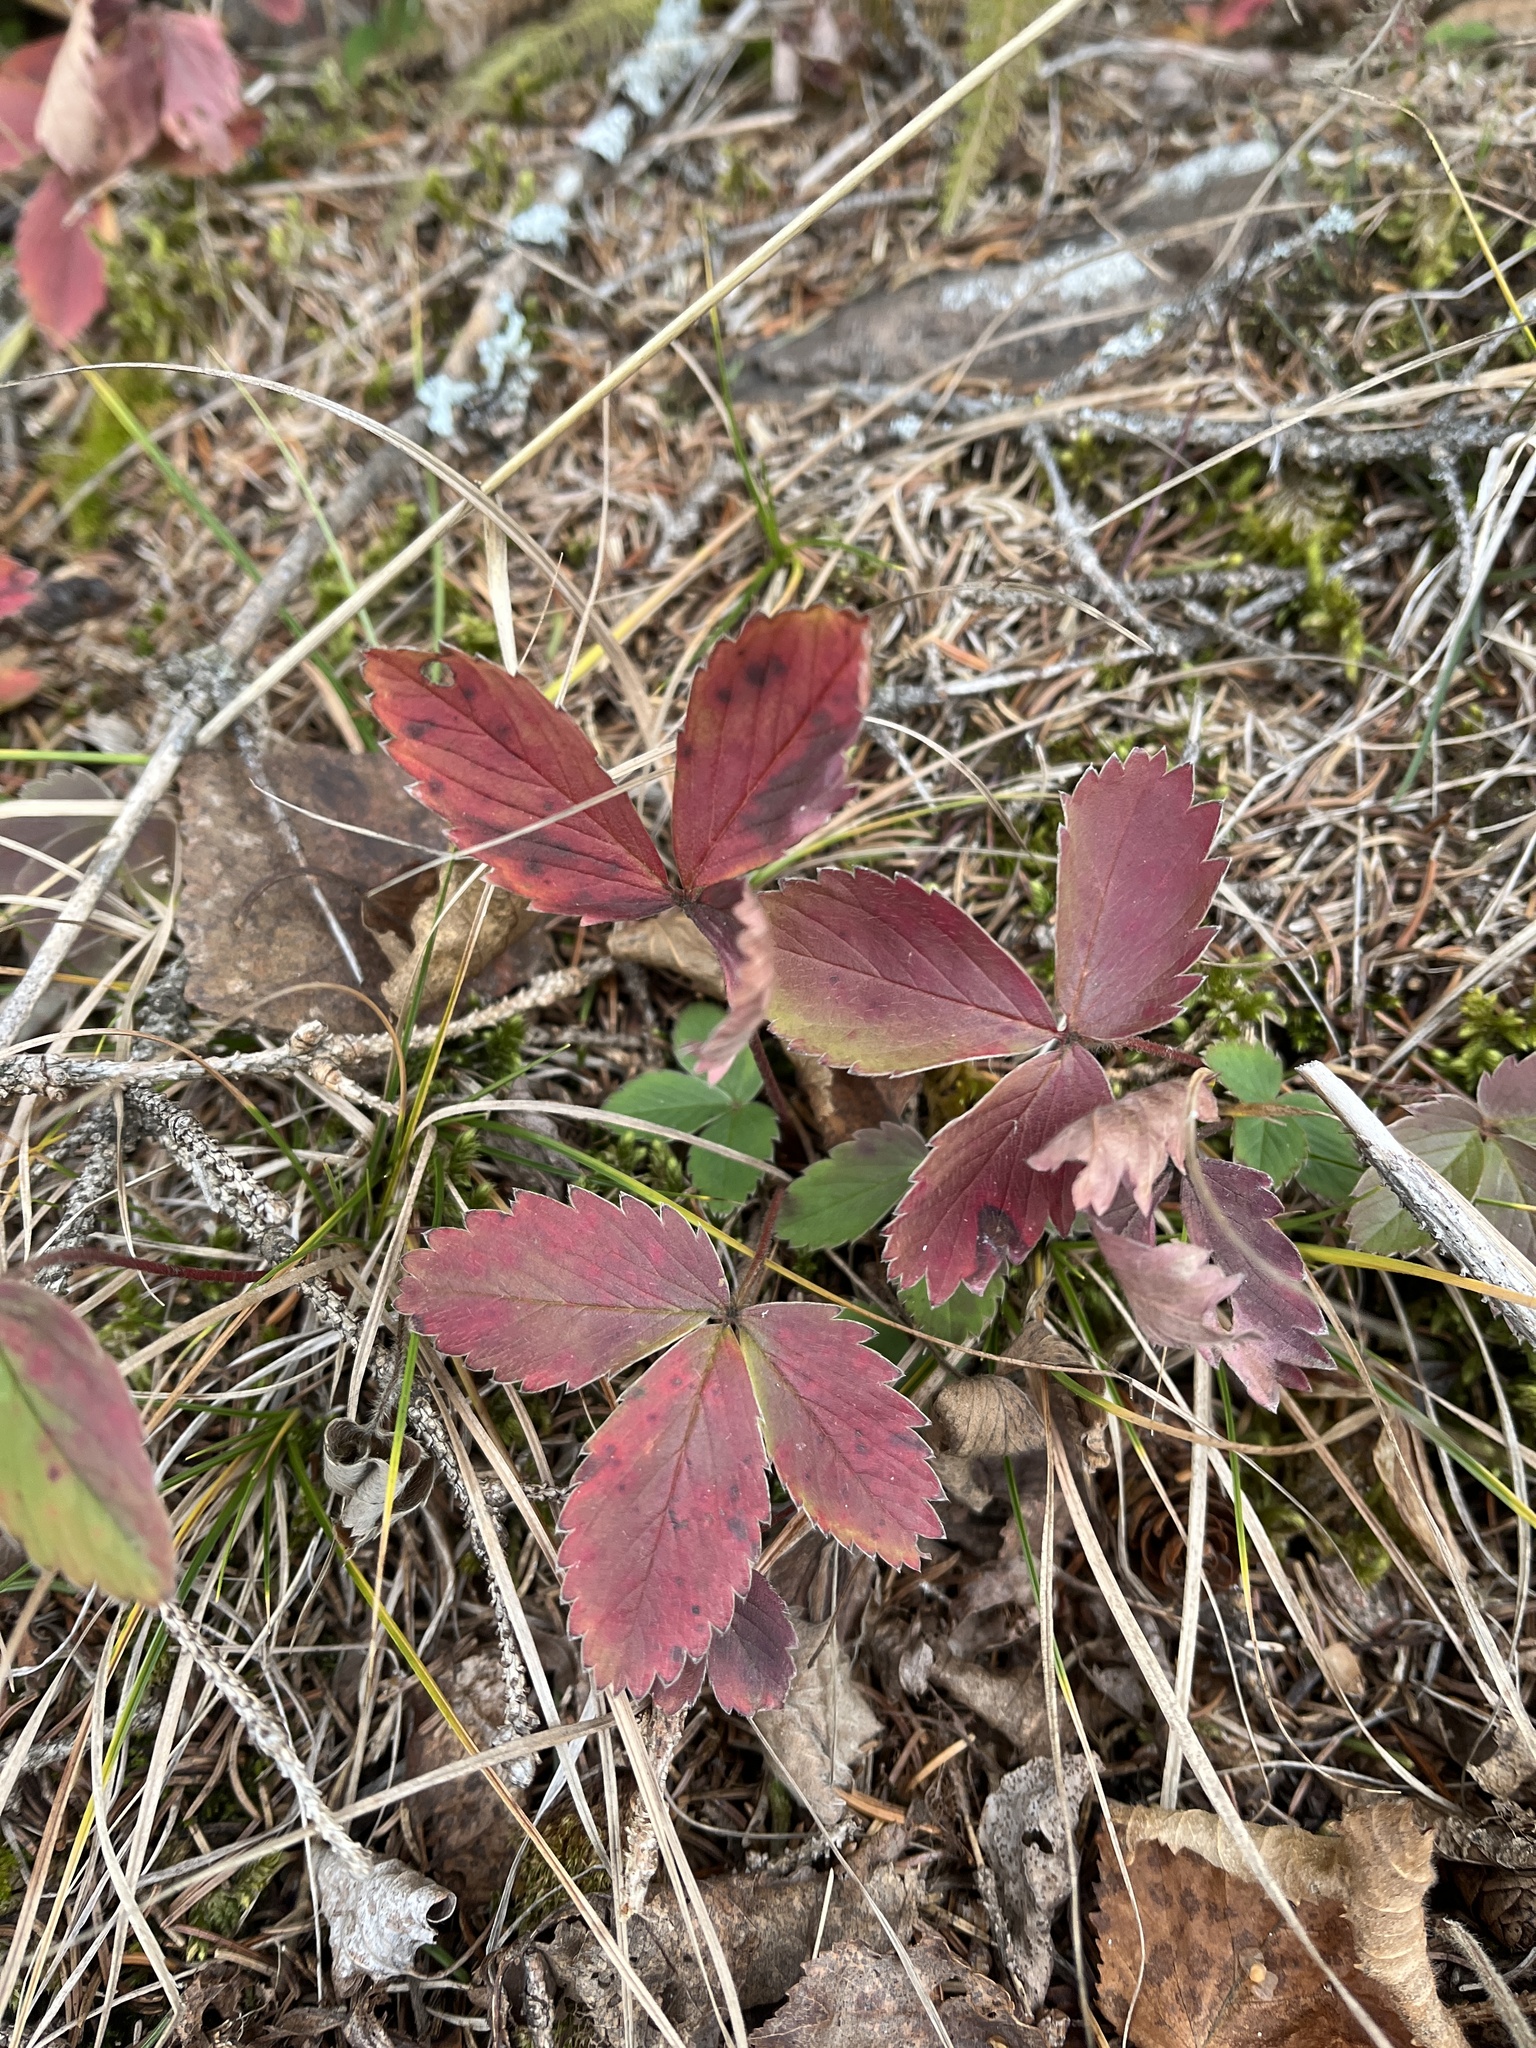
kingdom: Plantae
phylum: Tracheophyta
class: Magnoliopsida
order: Rosales
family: Rosaceae
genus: Fragaria
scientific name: Fragaria virginiana
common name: Thickleaved wild strawberry
